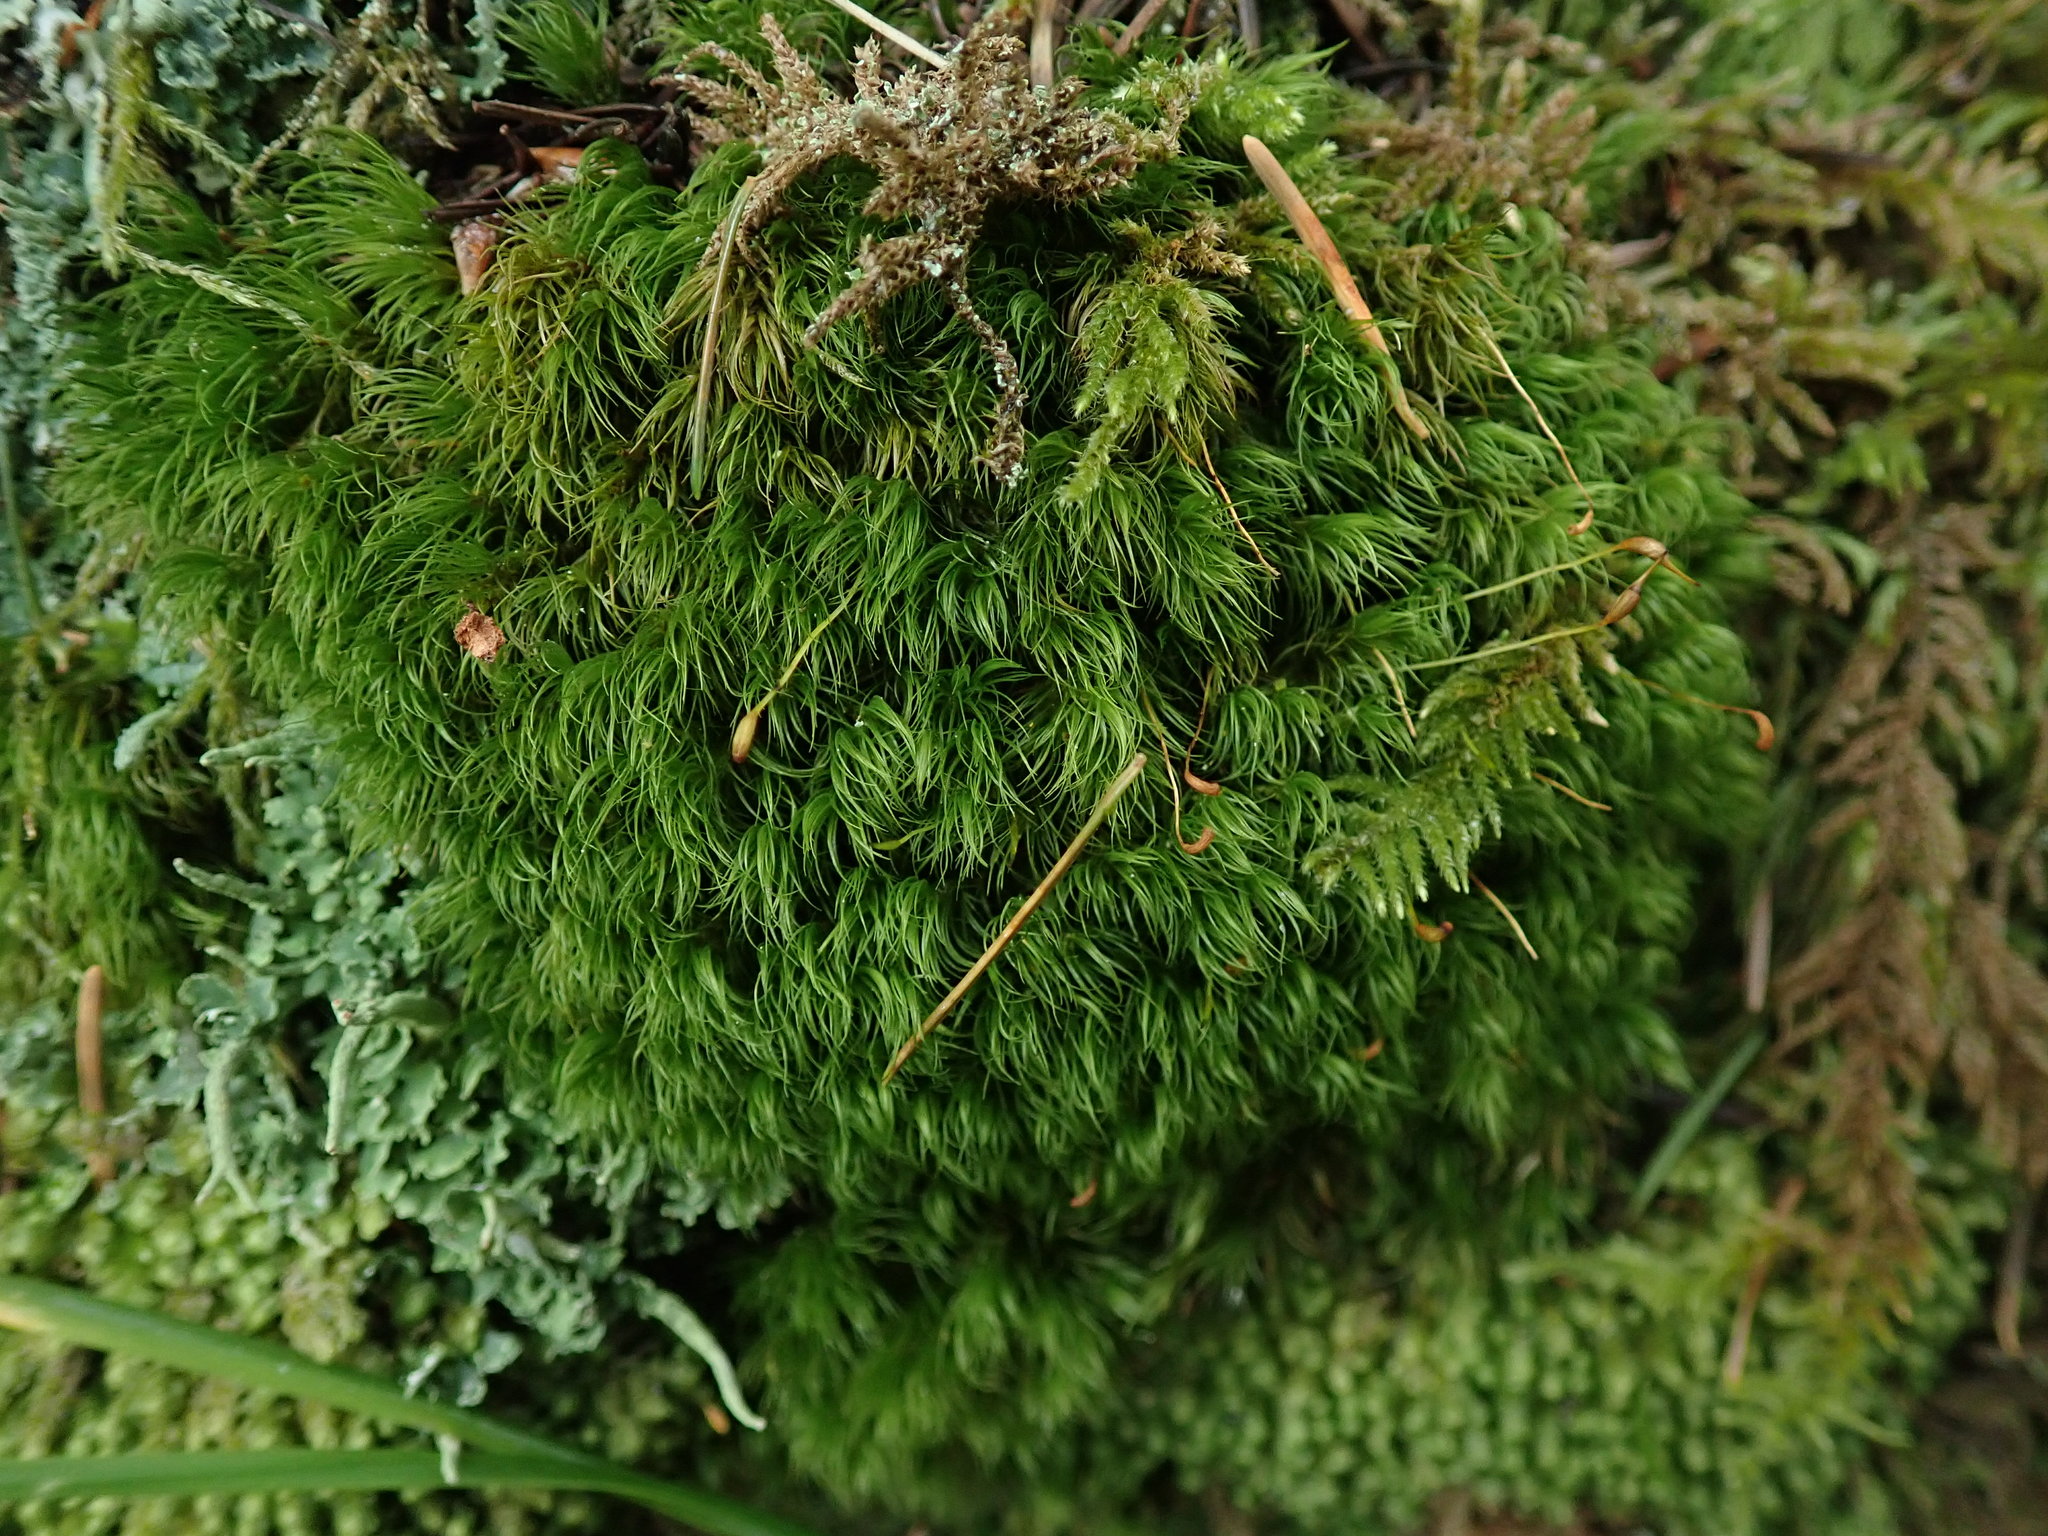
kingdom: Plantae
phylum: Bryophyta
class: Bryopsida
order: Dicranales
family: Dicranaceae
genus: Dicranum
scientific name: Dicranum fuscescens
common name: Curly heron's-bill moss
